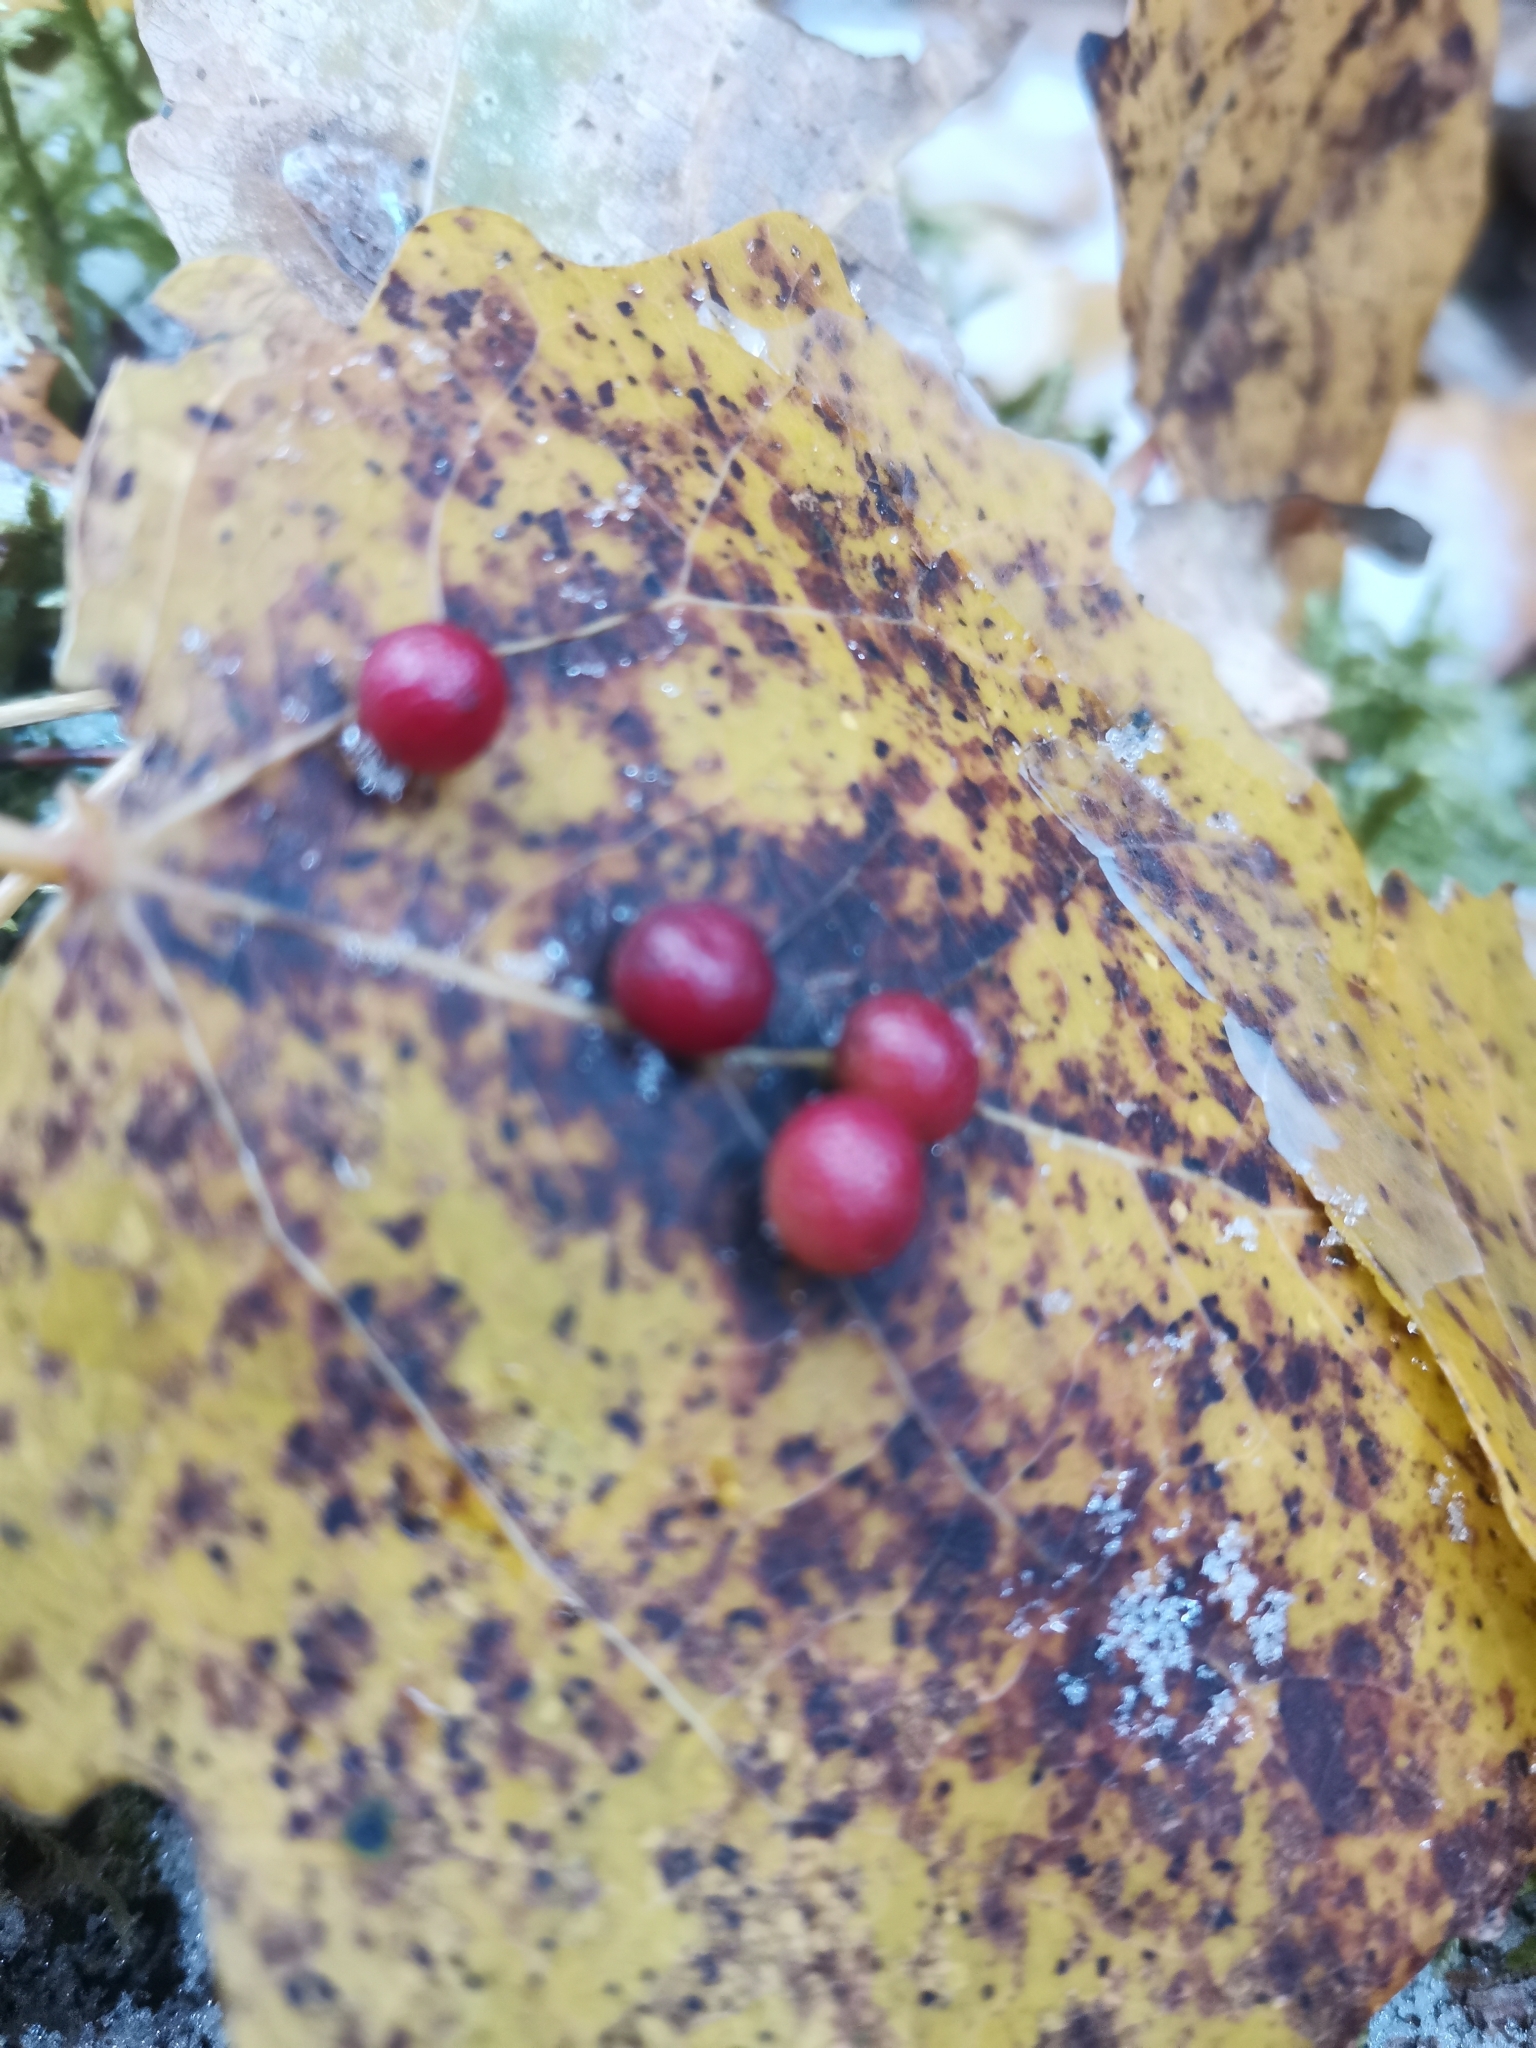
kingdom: Animalia
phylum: Arthropoda
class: Insecta
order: Diptera
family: Cecidomyiidae
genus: Harmandiola
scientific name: Harmandiola tremulae
